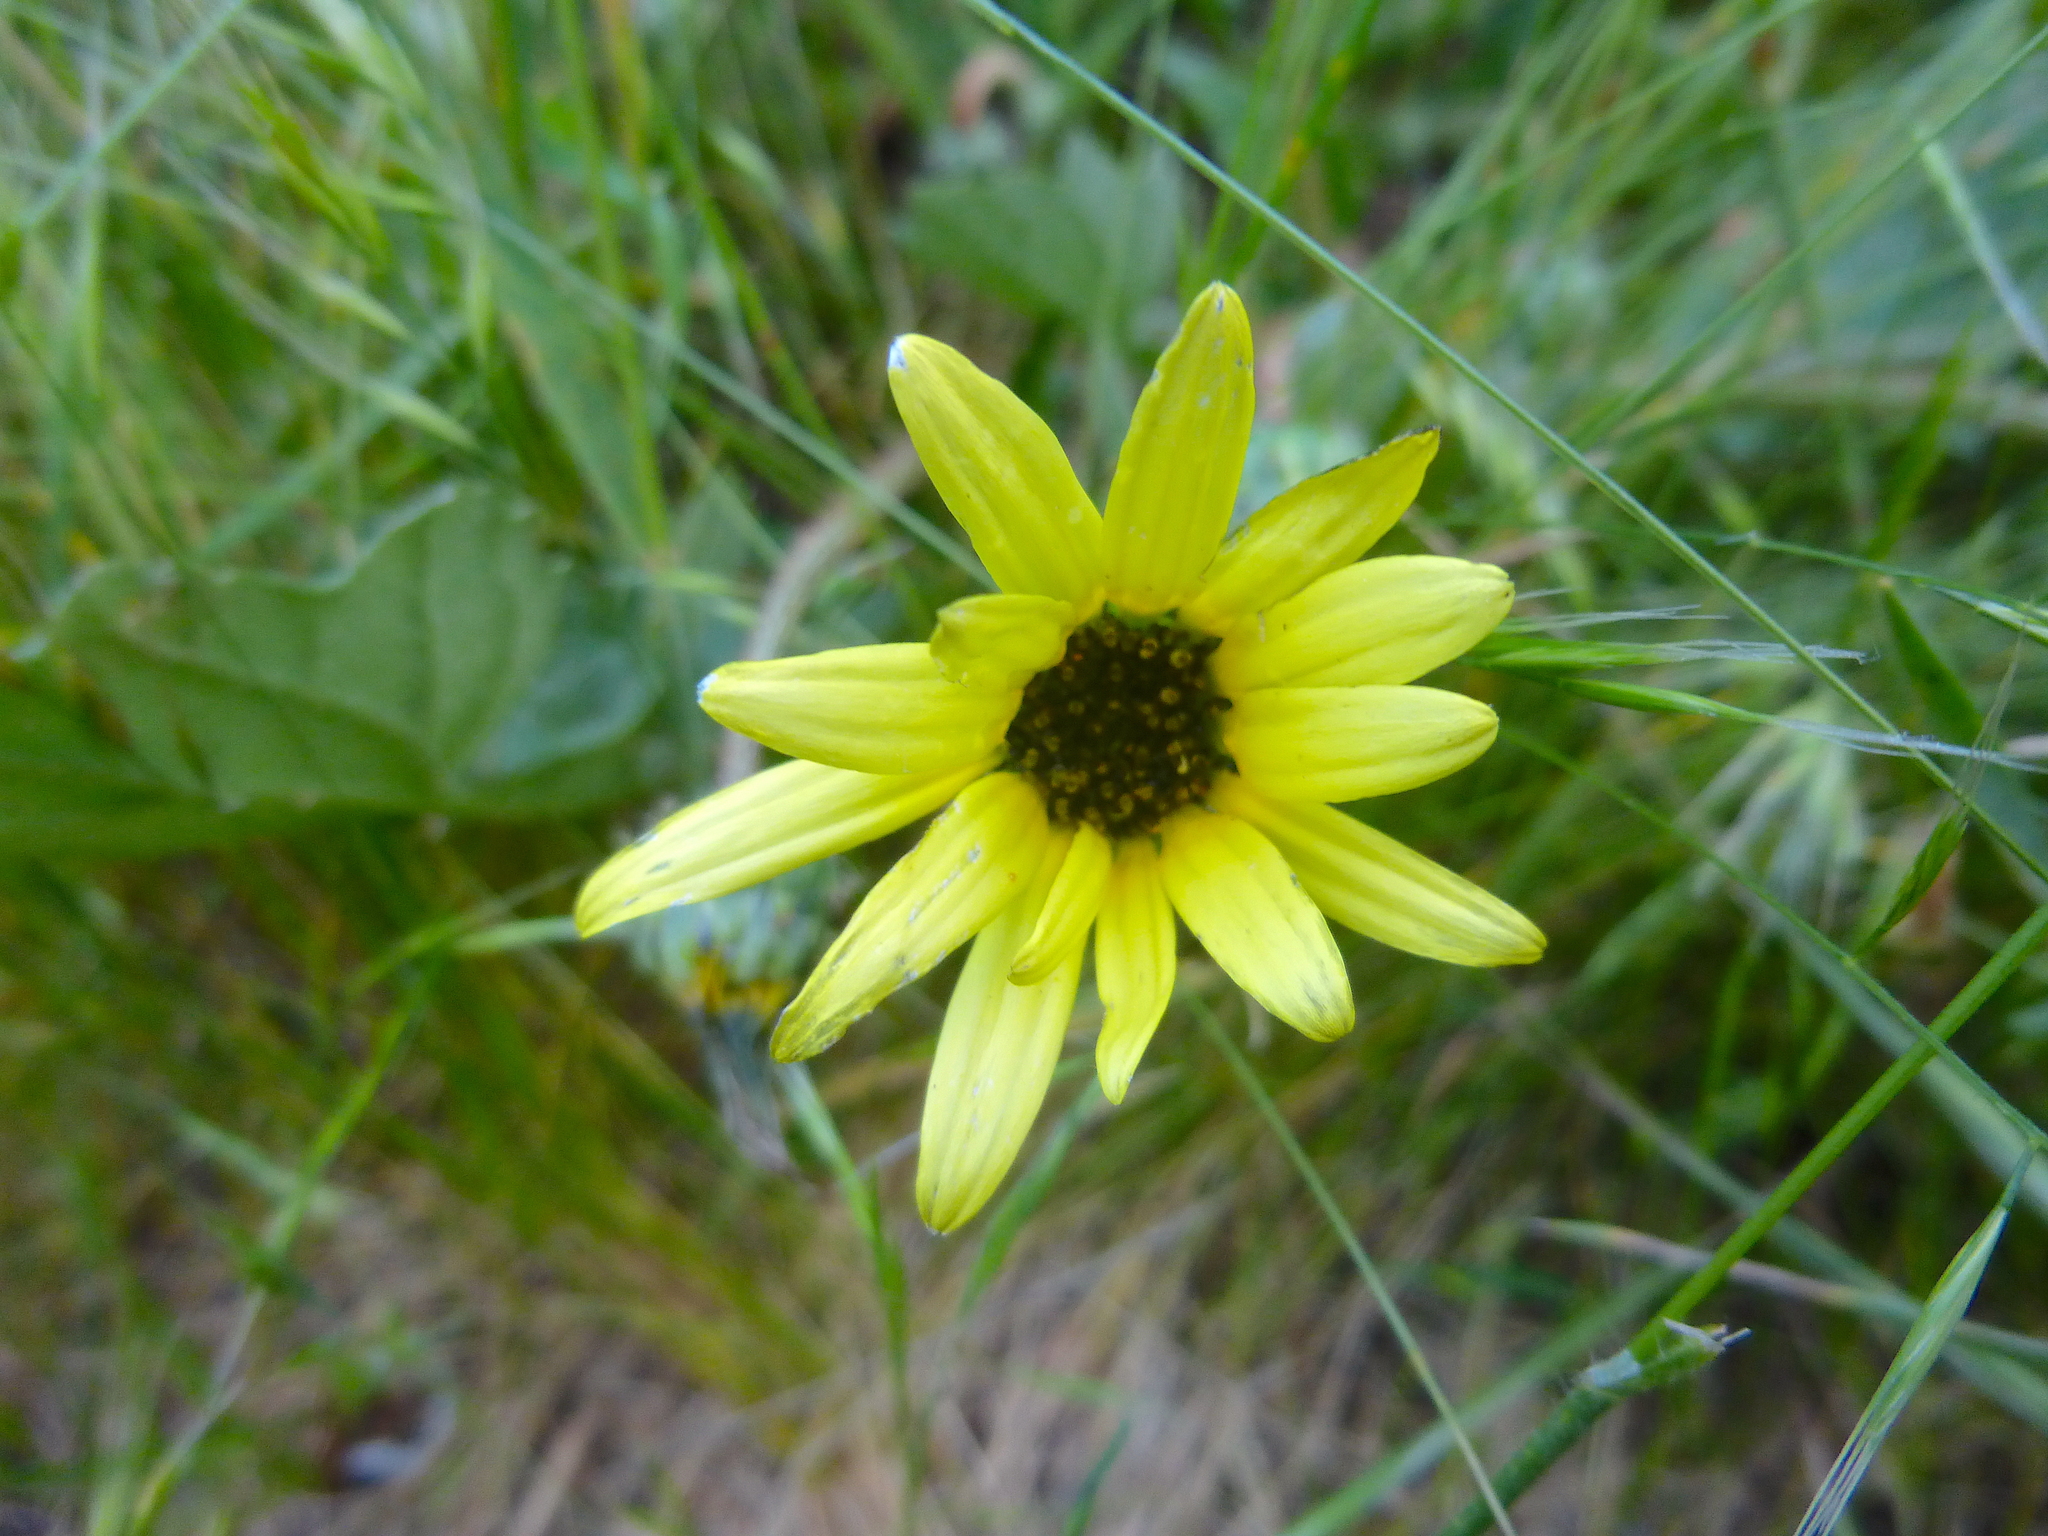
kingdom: Plantae
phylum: Tracheophyta
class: Magnoliopsida
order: Asterales
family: Asteraceae
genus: Arctotheca
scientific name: Arctotheca calendula
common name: Capeweed
